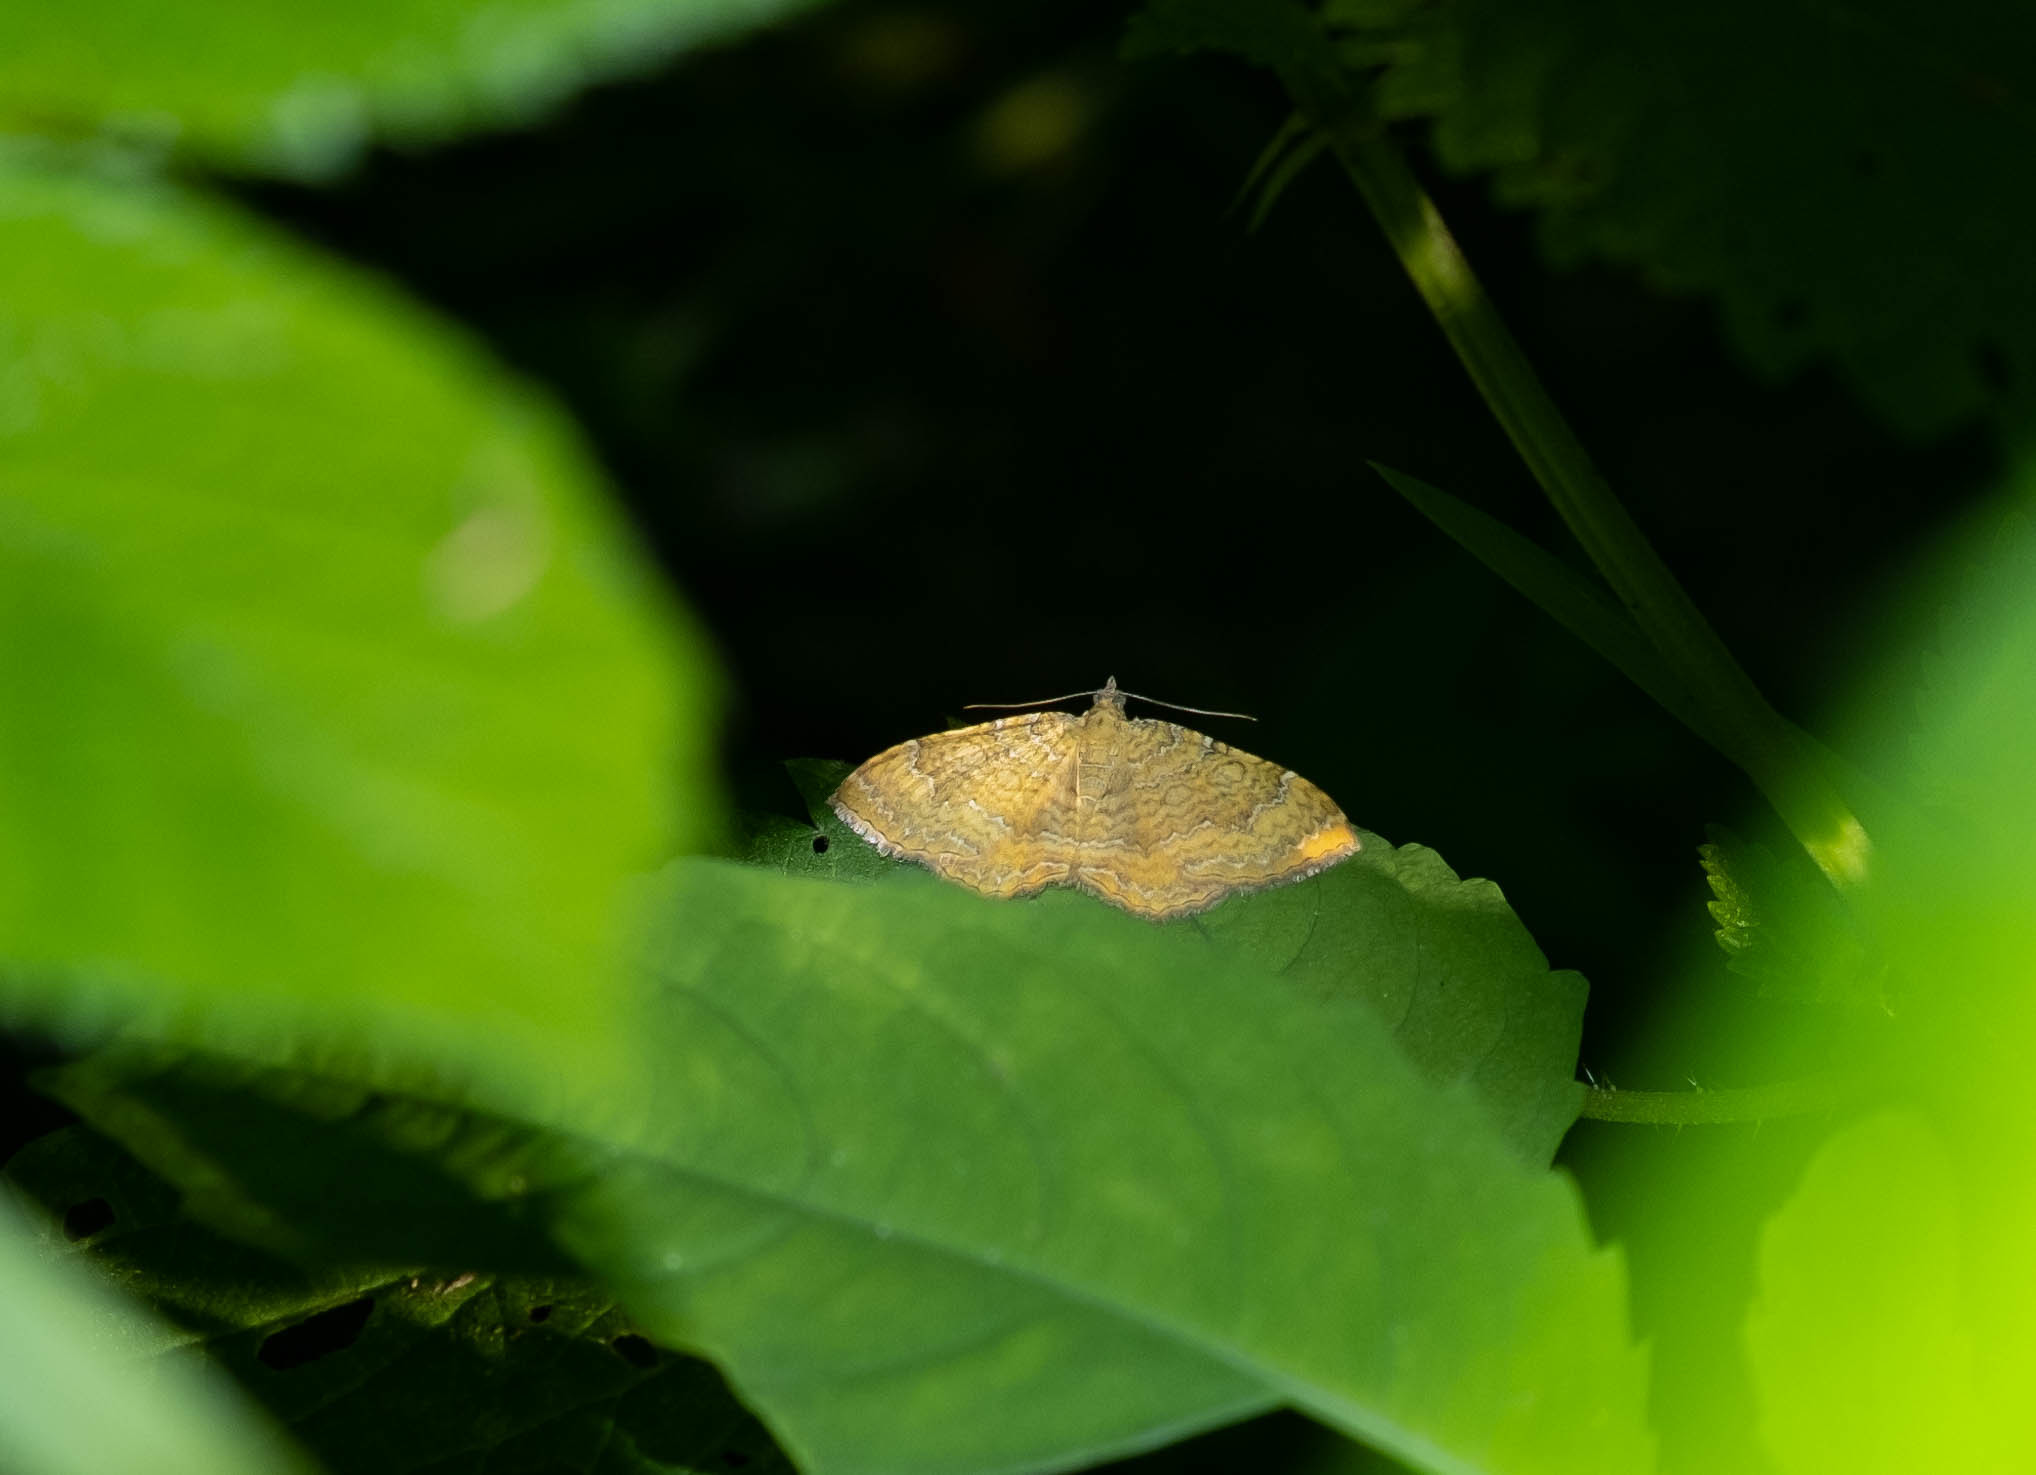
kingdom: Animalia
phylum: Arthropoda
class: Insecta
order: Lepidoptera
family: Geometridae
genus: Camptogramma
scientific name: Camptogramma bilineata
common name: Yellow shell
